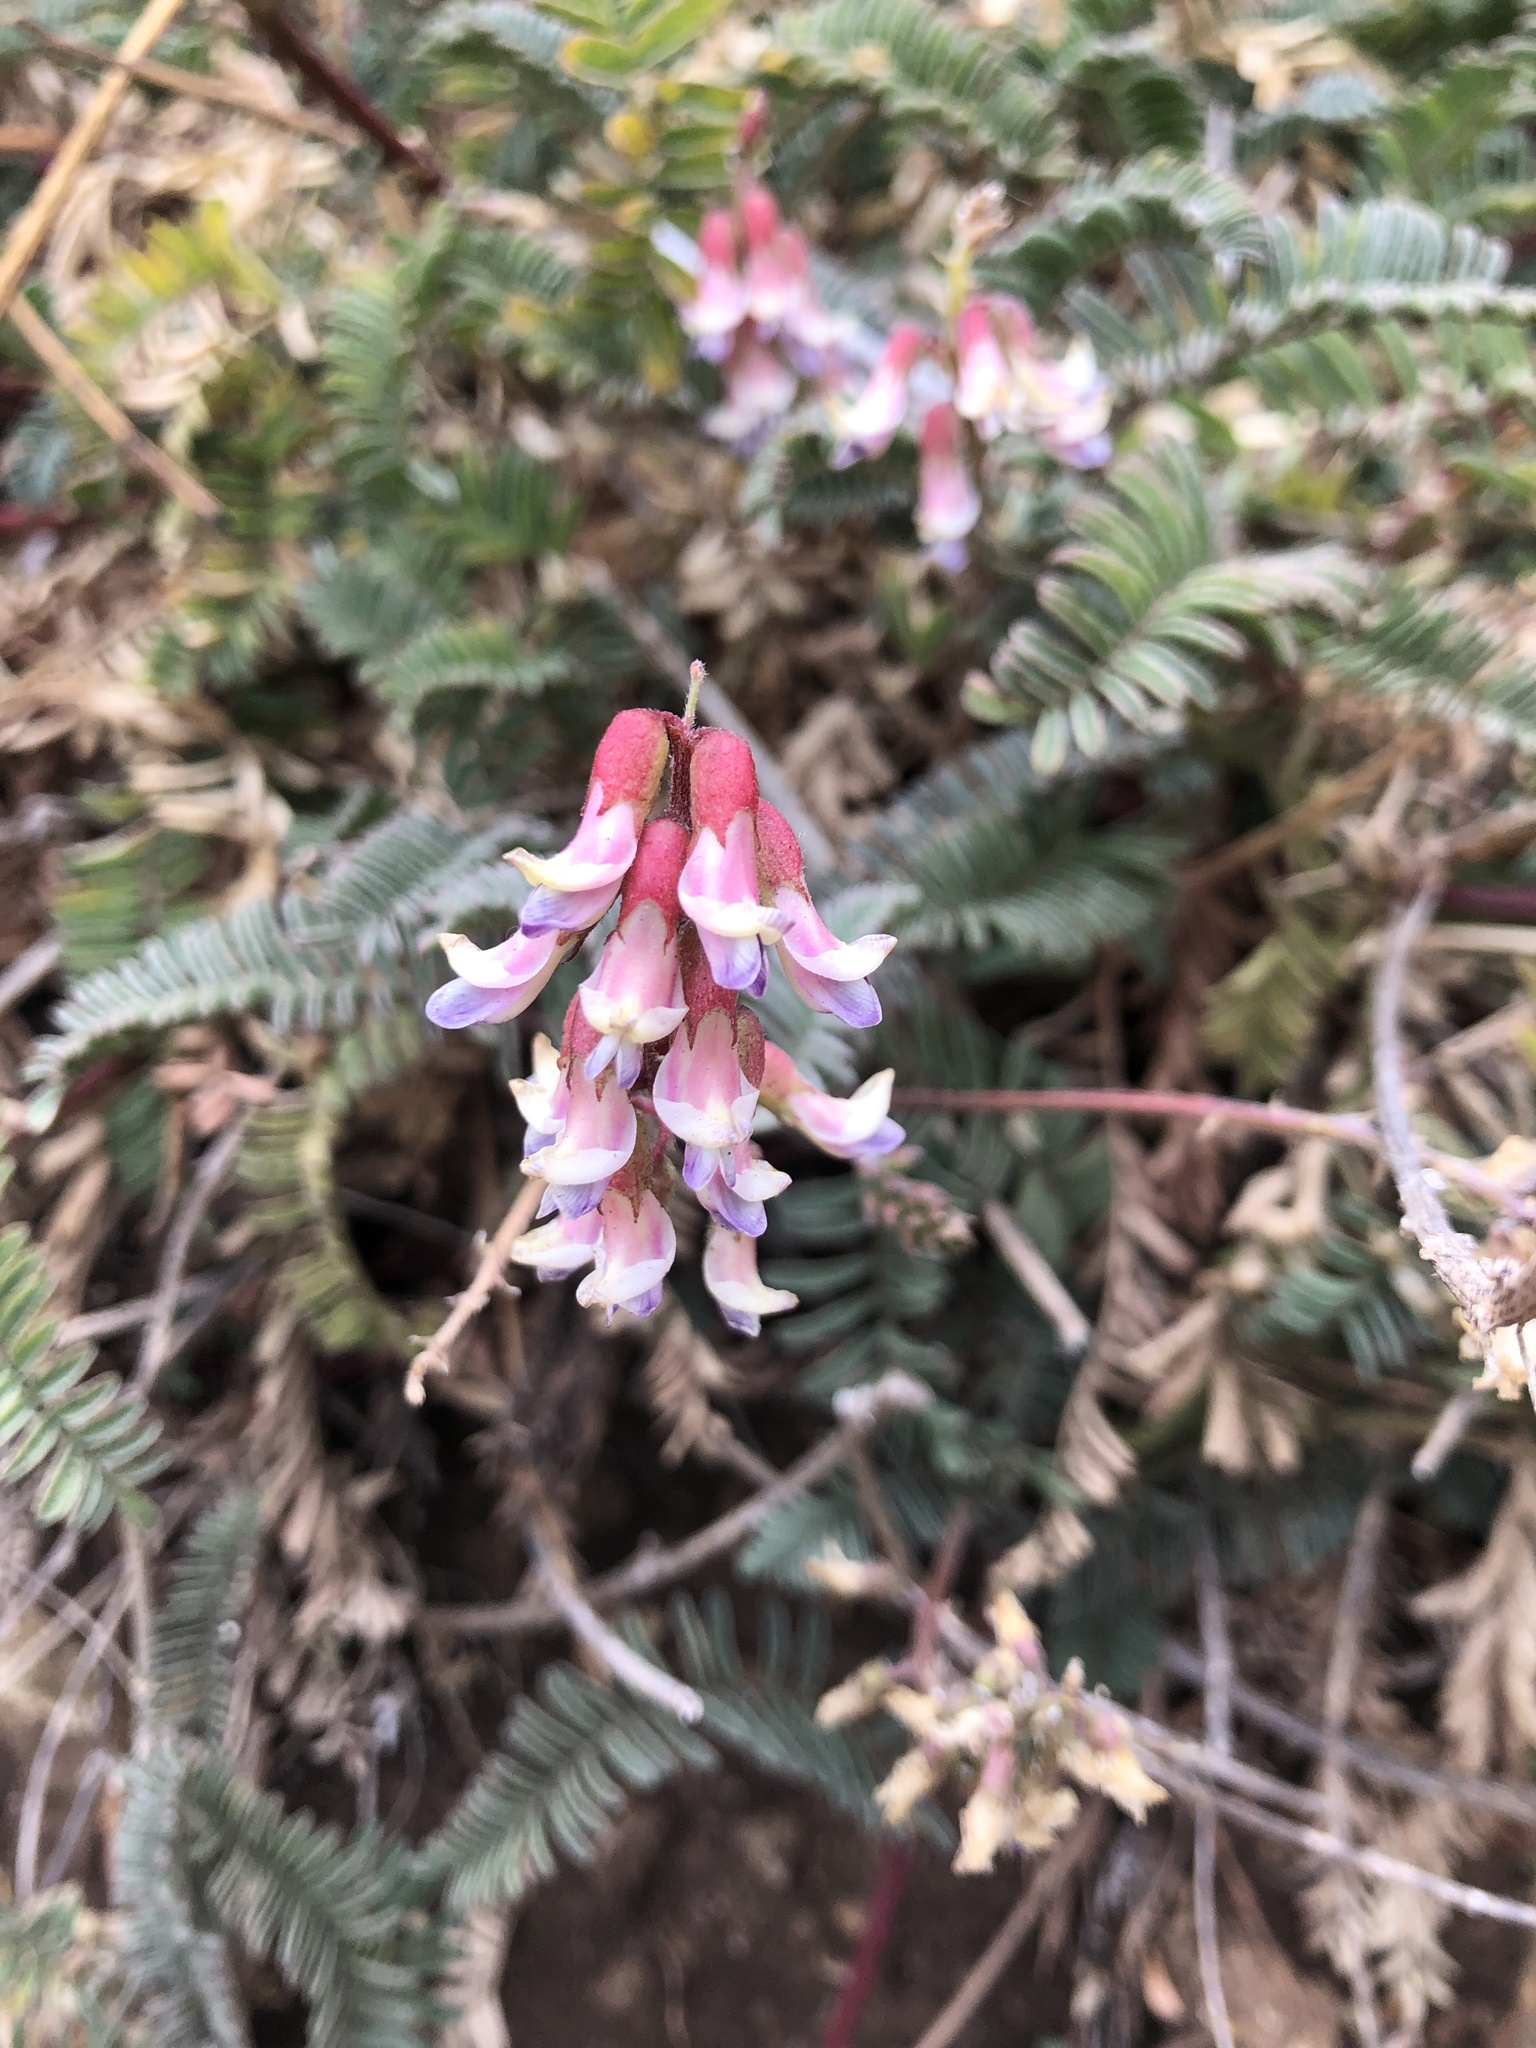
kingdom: Plantae
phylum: Tracheophyta
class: Magnoliopsida
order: Fabales
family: Fabaceae
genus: Astragalus
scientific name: Astragalus nuttallii
